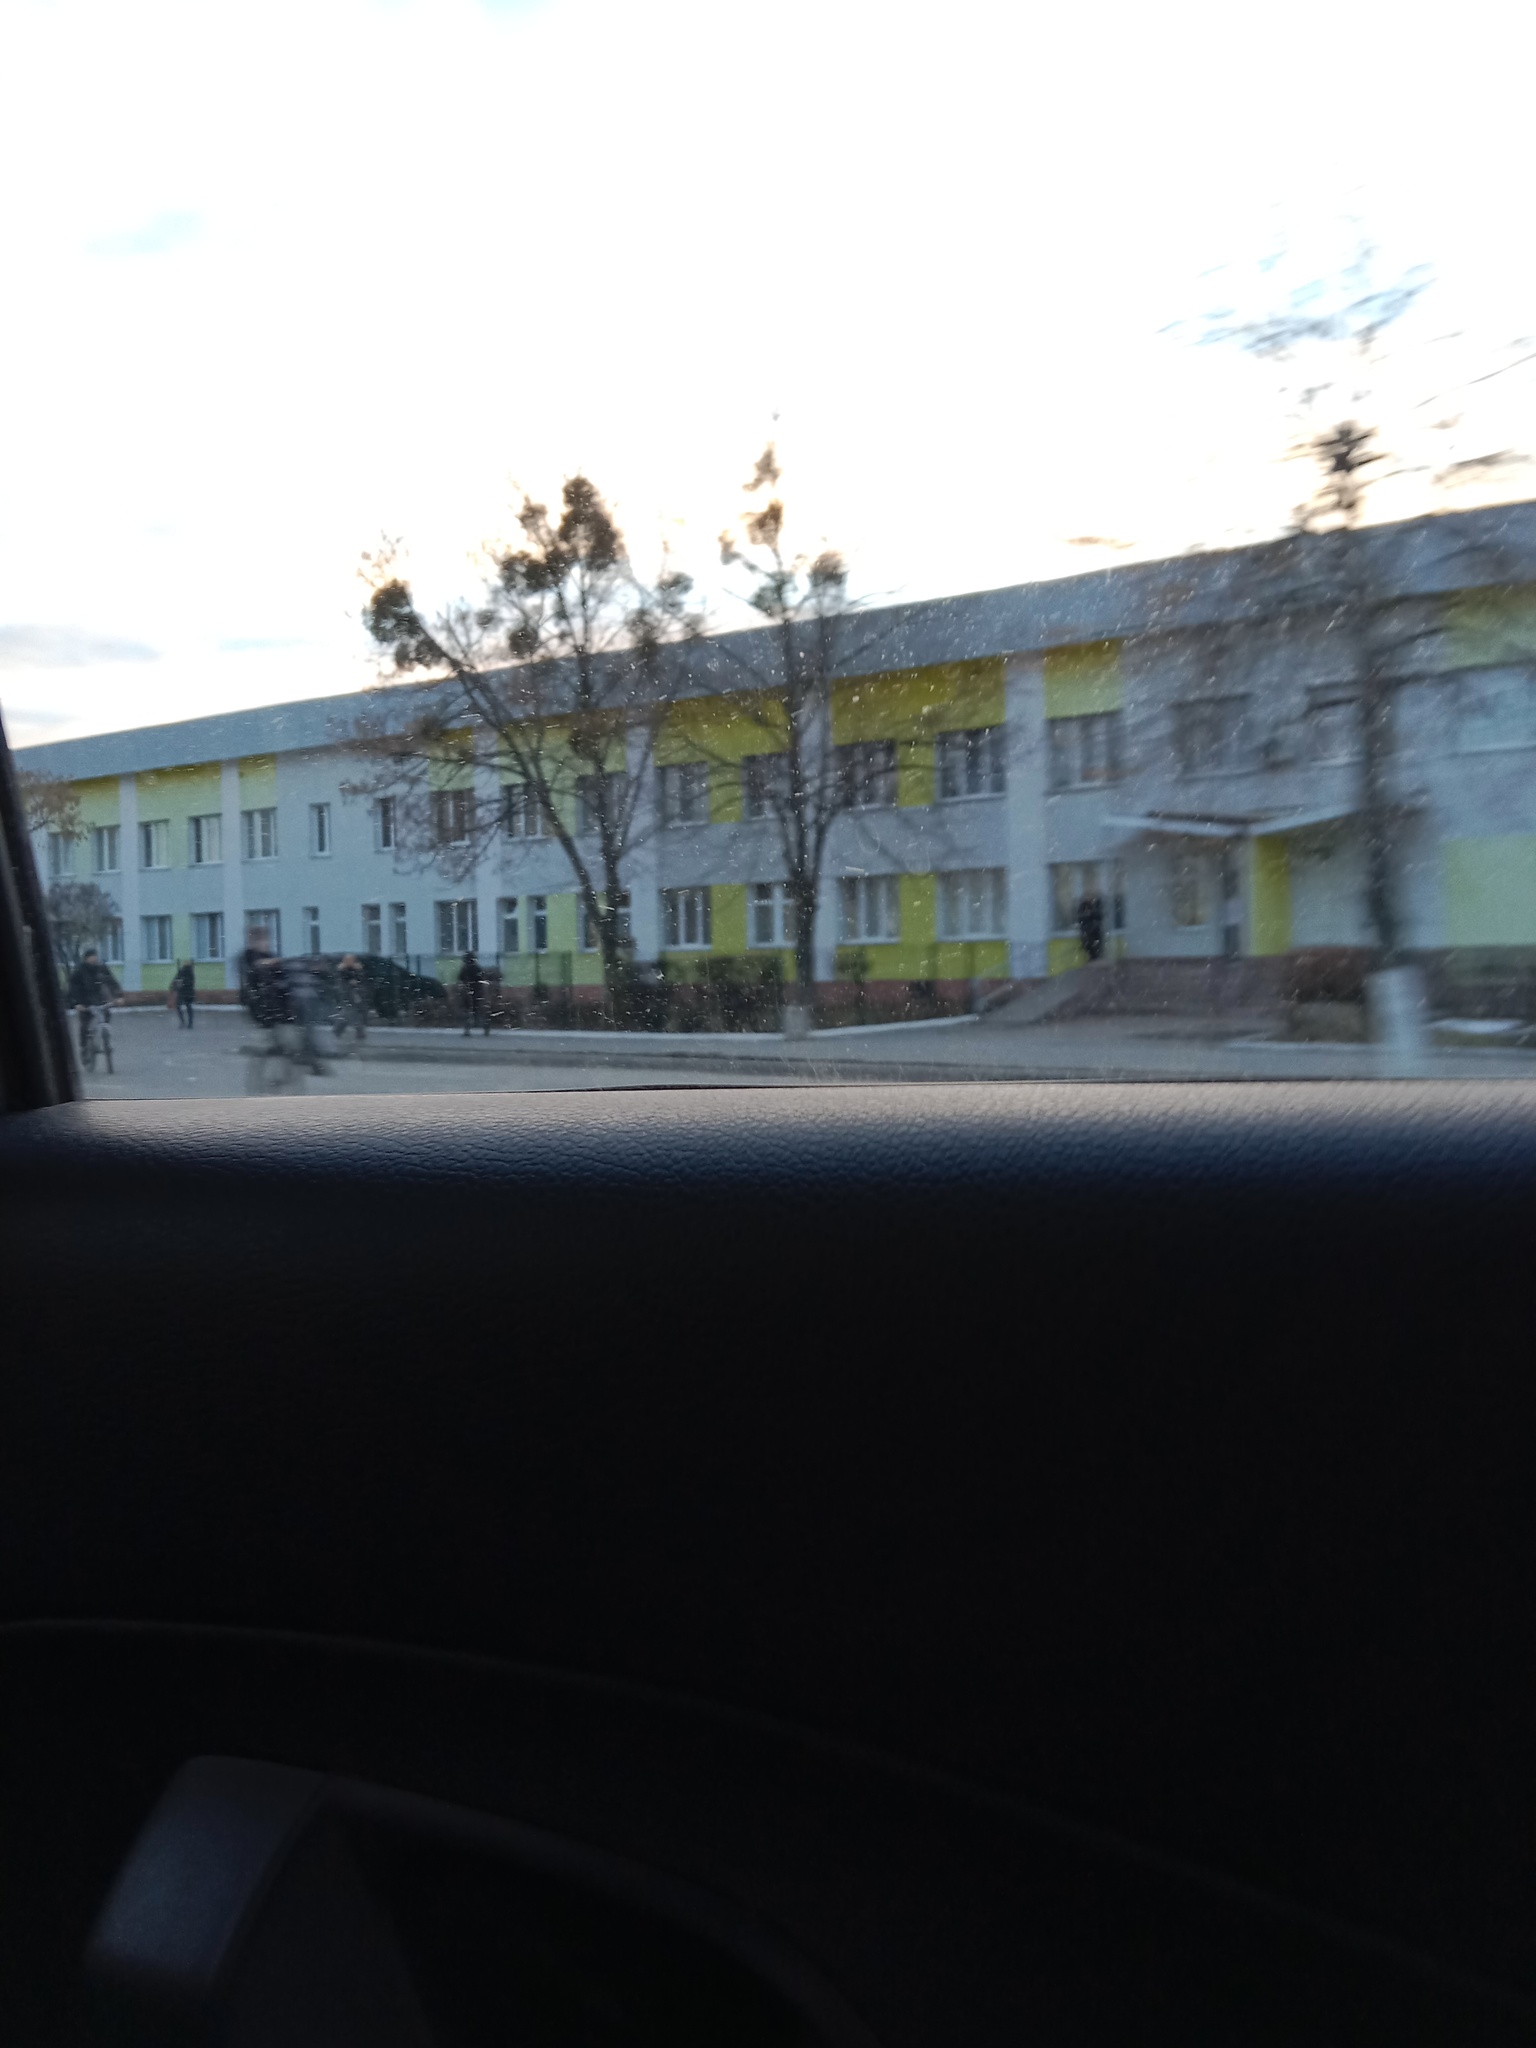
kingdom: Plantae
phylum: Tracheophyta
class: Magnoliopsida
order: Santalales
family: Viscaceae
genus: Viscum
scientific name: Viscum album
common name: Mistletoe
